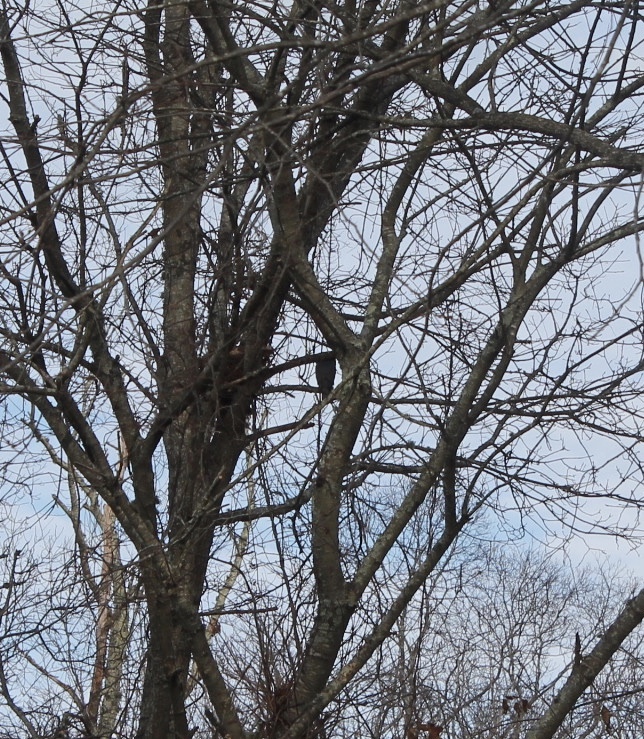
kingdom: Animalia
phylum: Chordata
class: Aves
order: Accipitriformes
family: Accipitridae
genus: Accipiter
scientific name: Accipiter cooperii
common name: Cooper's hawk
